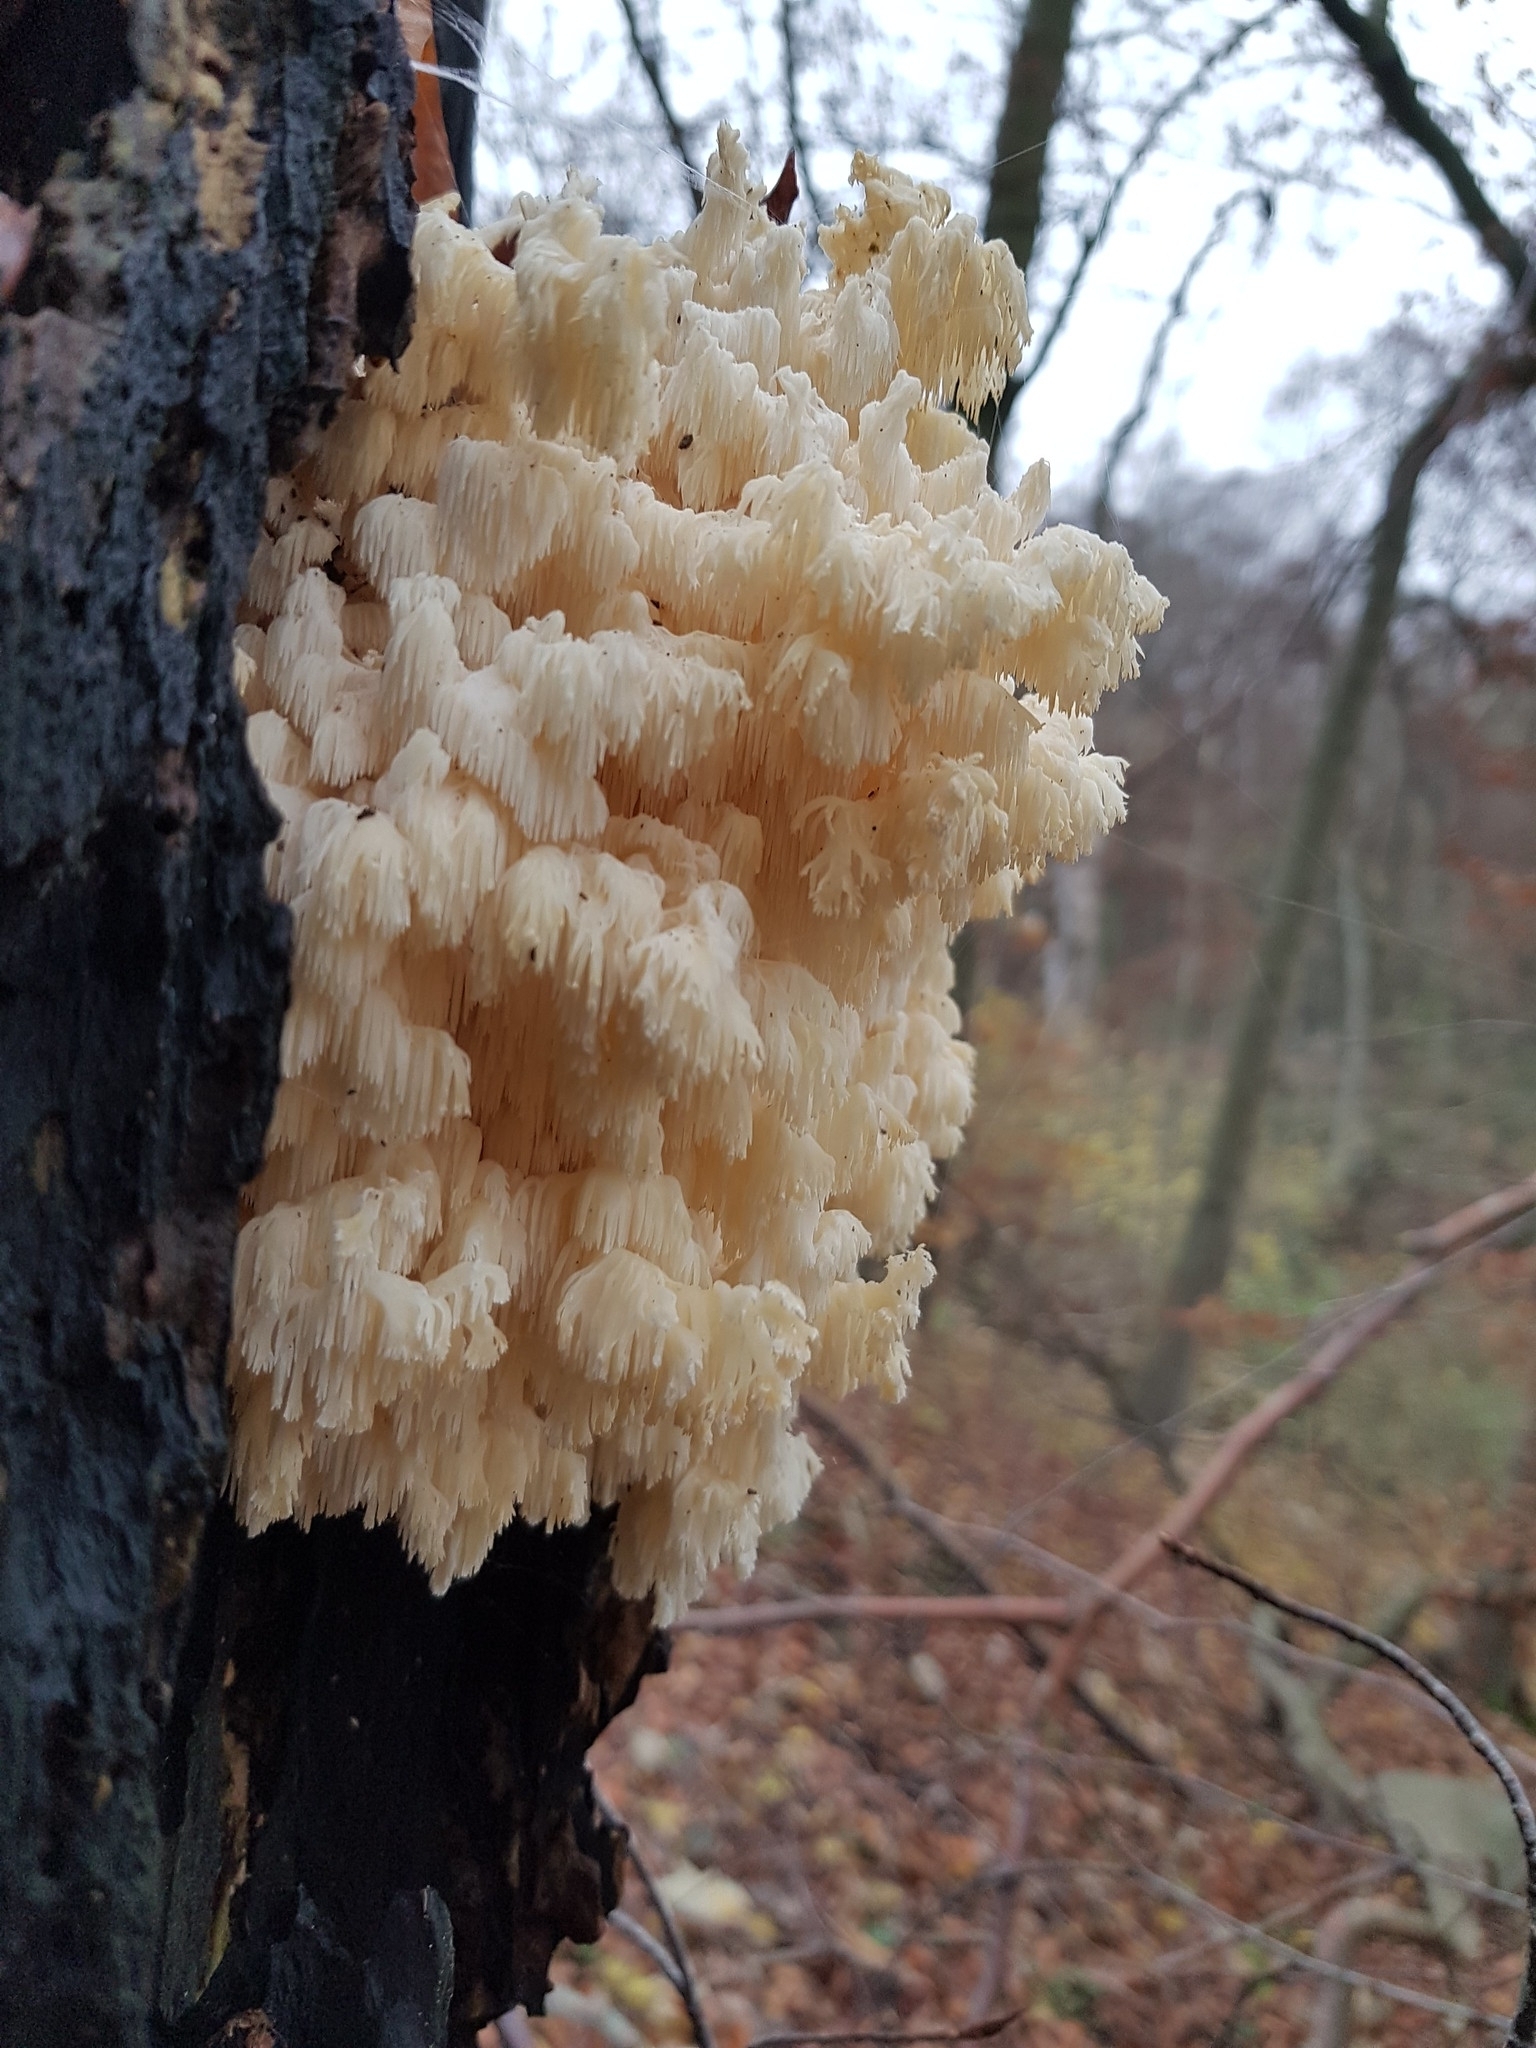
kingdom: Fungi
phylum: Basidiomycota
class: Agaricomycetes
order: Russulales
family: Hericiaceae
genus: Hericium
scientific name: Hericium coralloides
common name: Coral tooth
